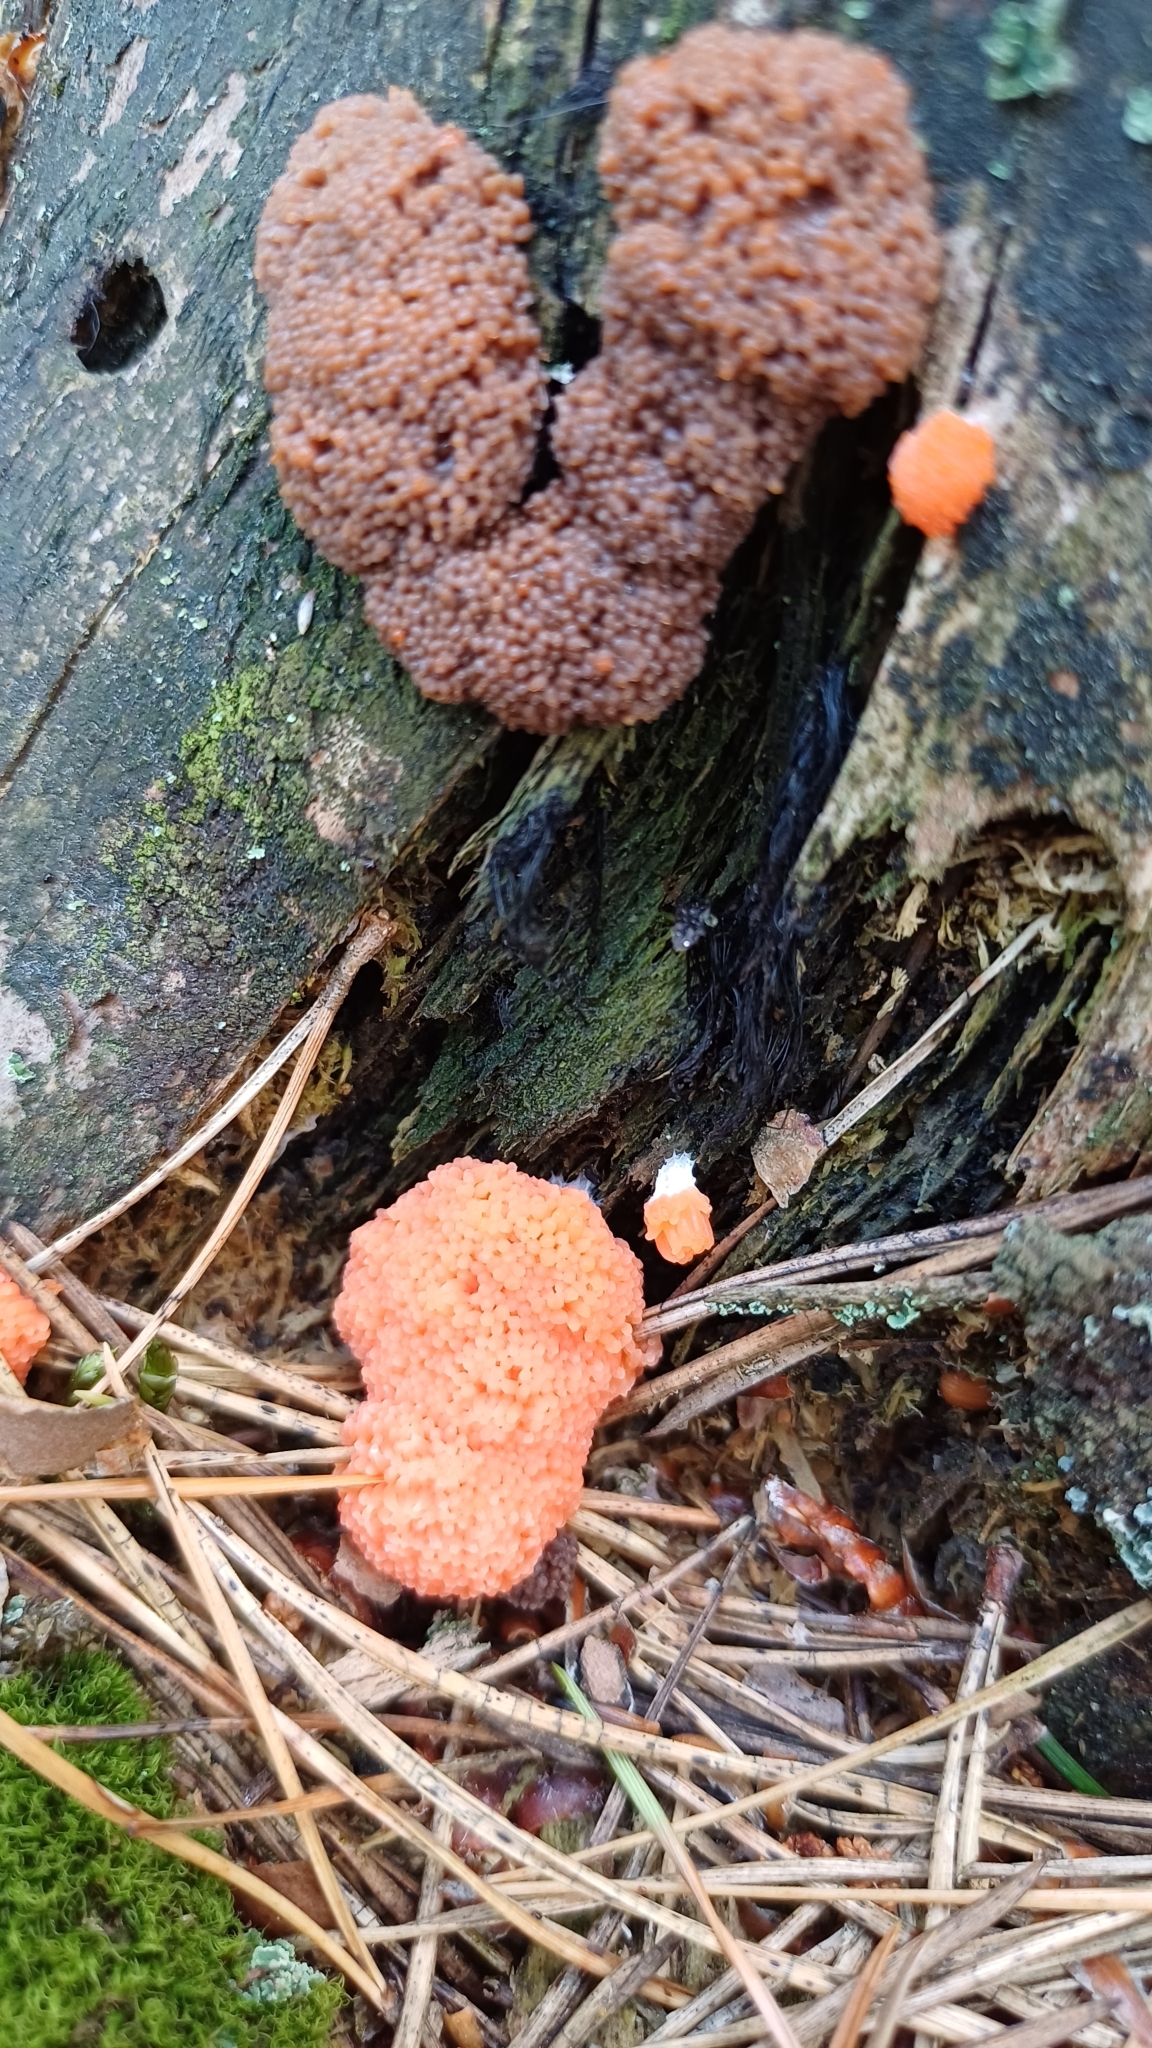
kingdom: Protozoa
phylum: Mycetozoa
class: Myxomycetes
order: Cribrariales
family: Tubiferaceae
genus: Tubifera
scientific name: Tubifera ferruginosa
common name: Red raspberry slime mold
